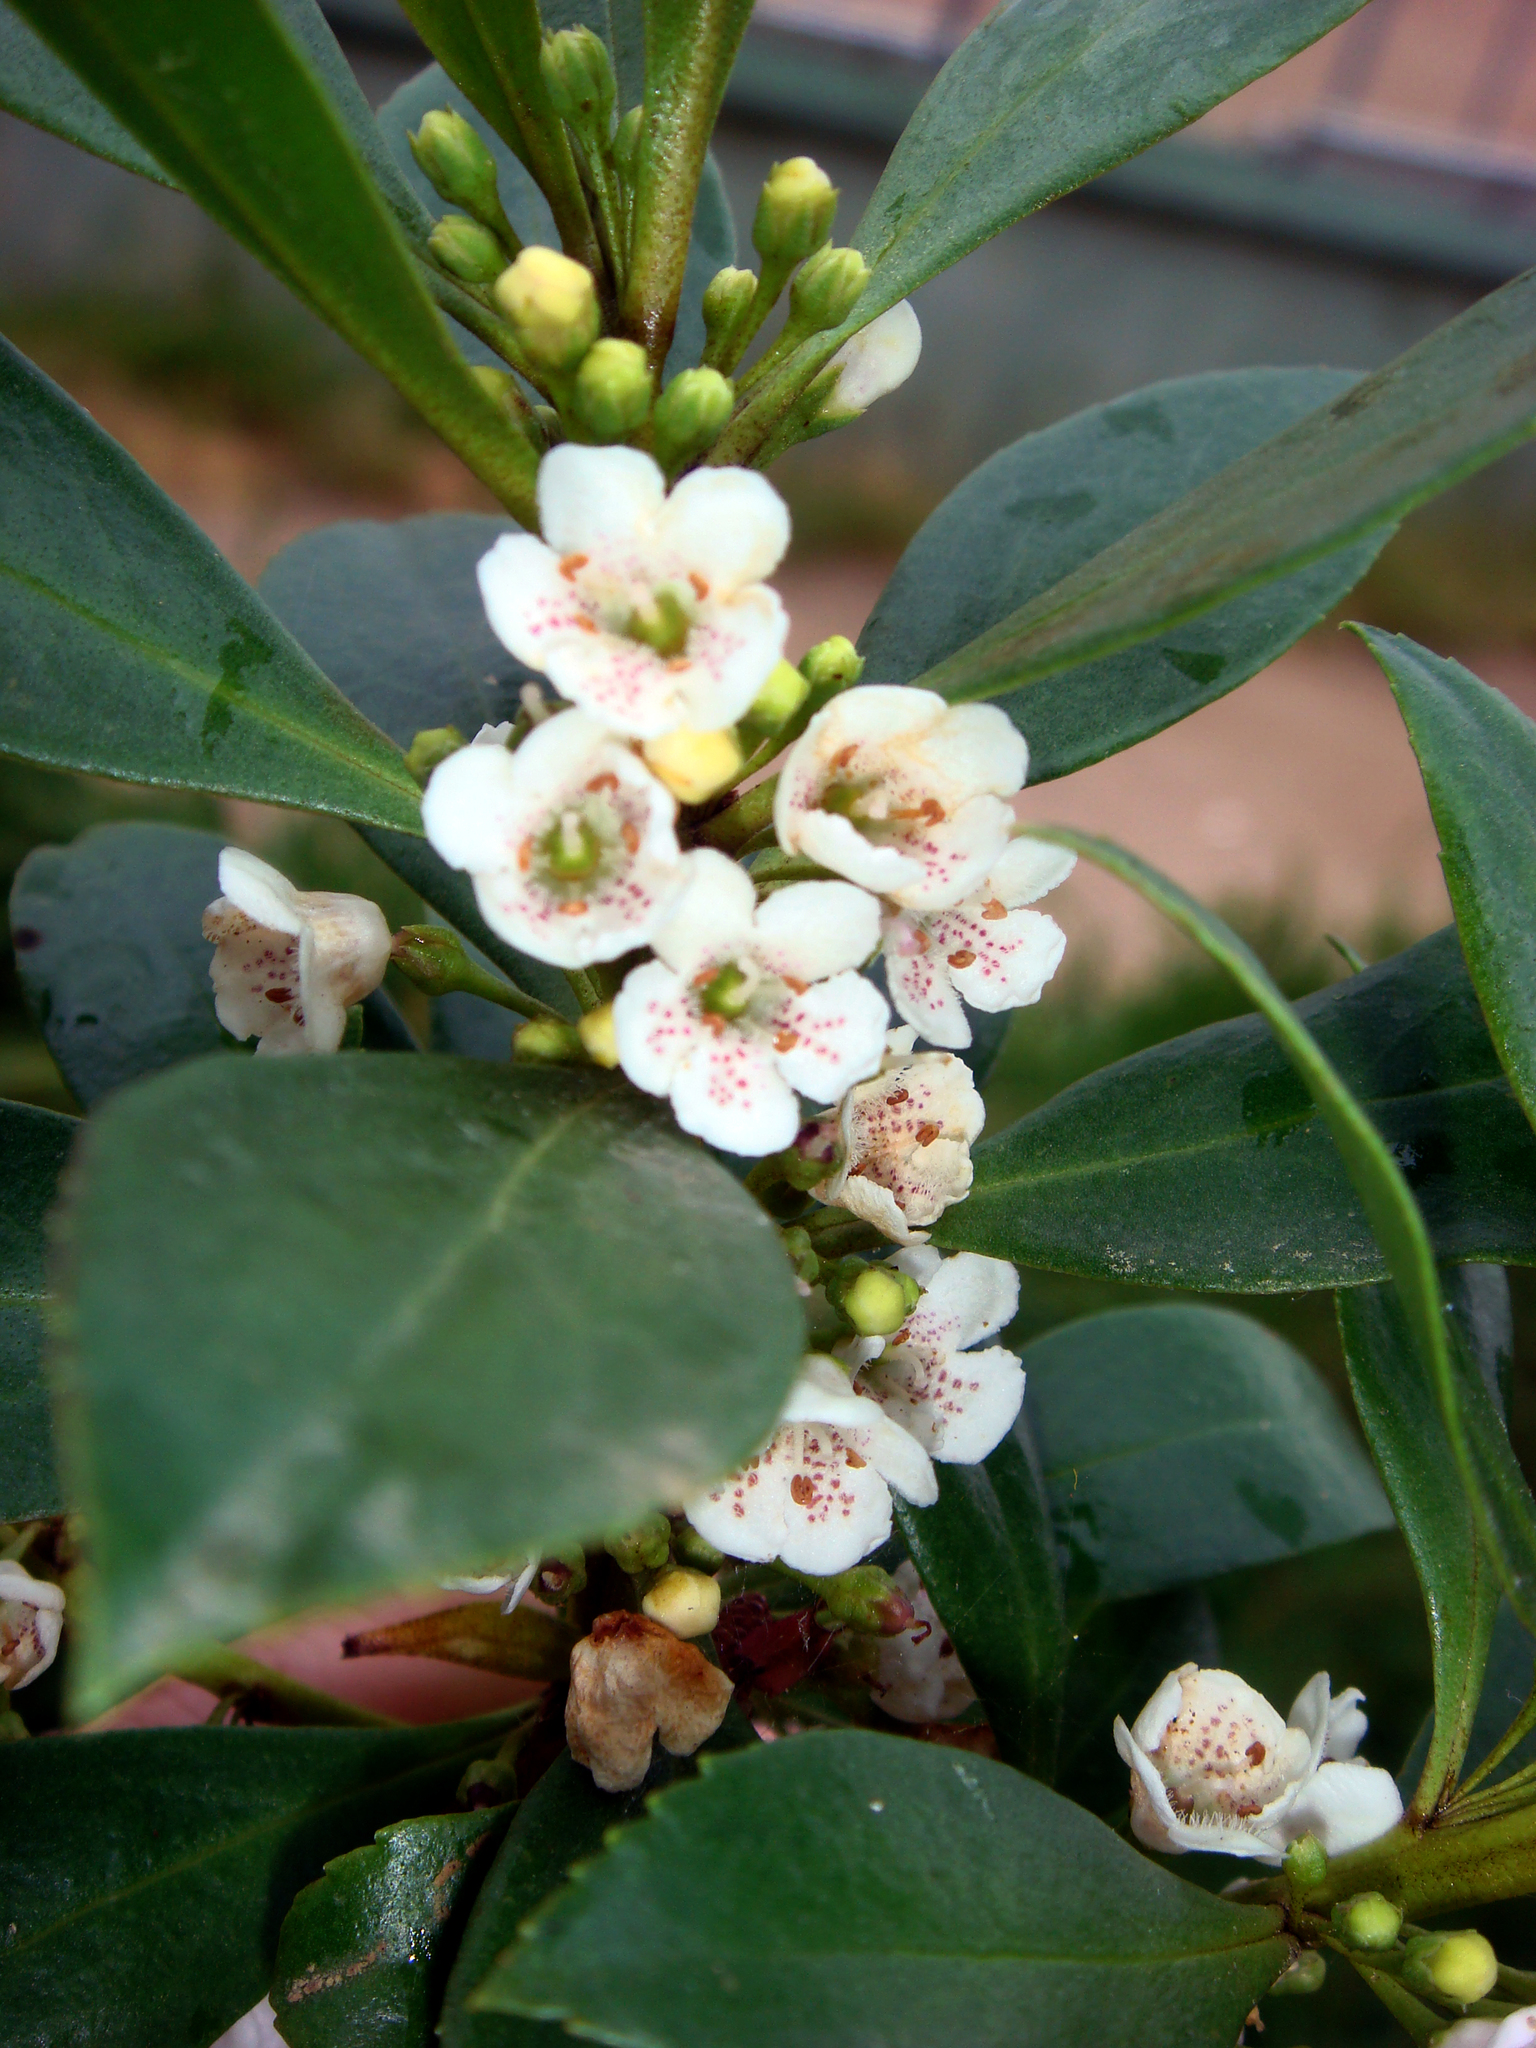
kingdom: Plantae
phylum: Tracheophyta
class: Magnoliopsida
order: Lamiales
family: Scrophulariaceae
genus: Myoporum
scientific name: Myoporum insulare
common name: Common boobialla
